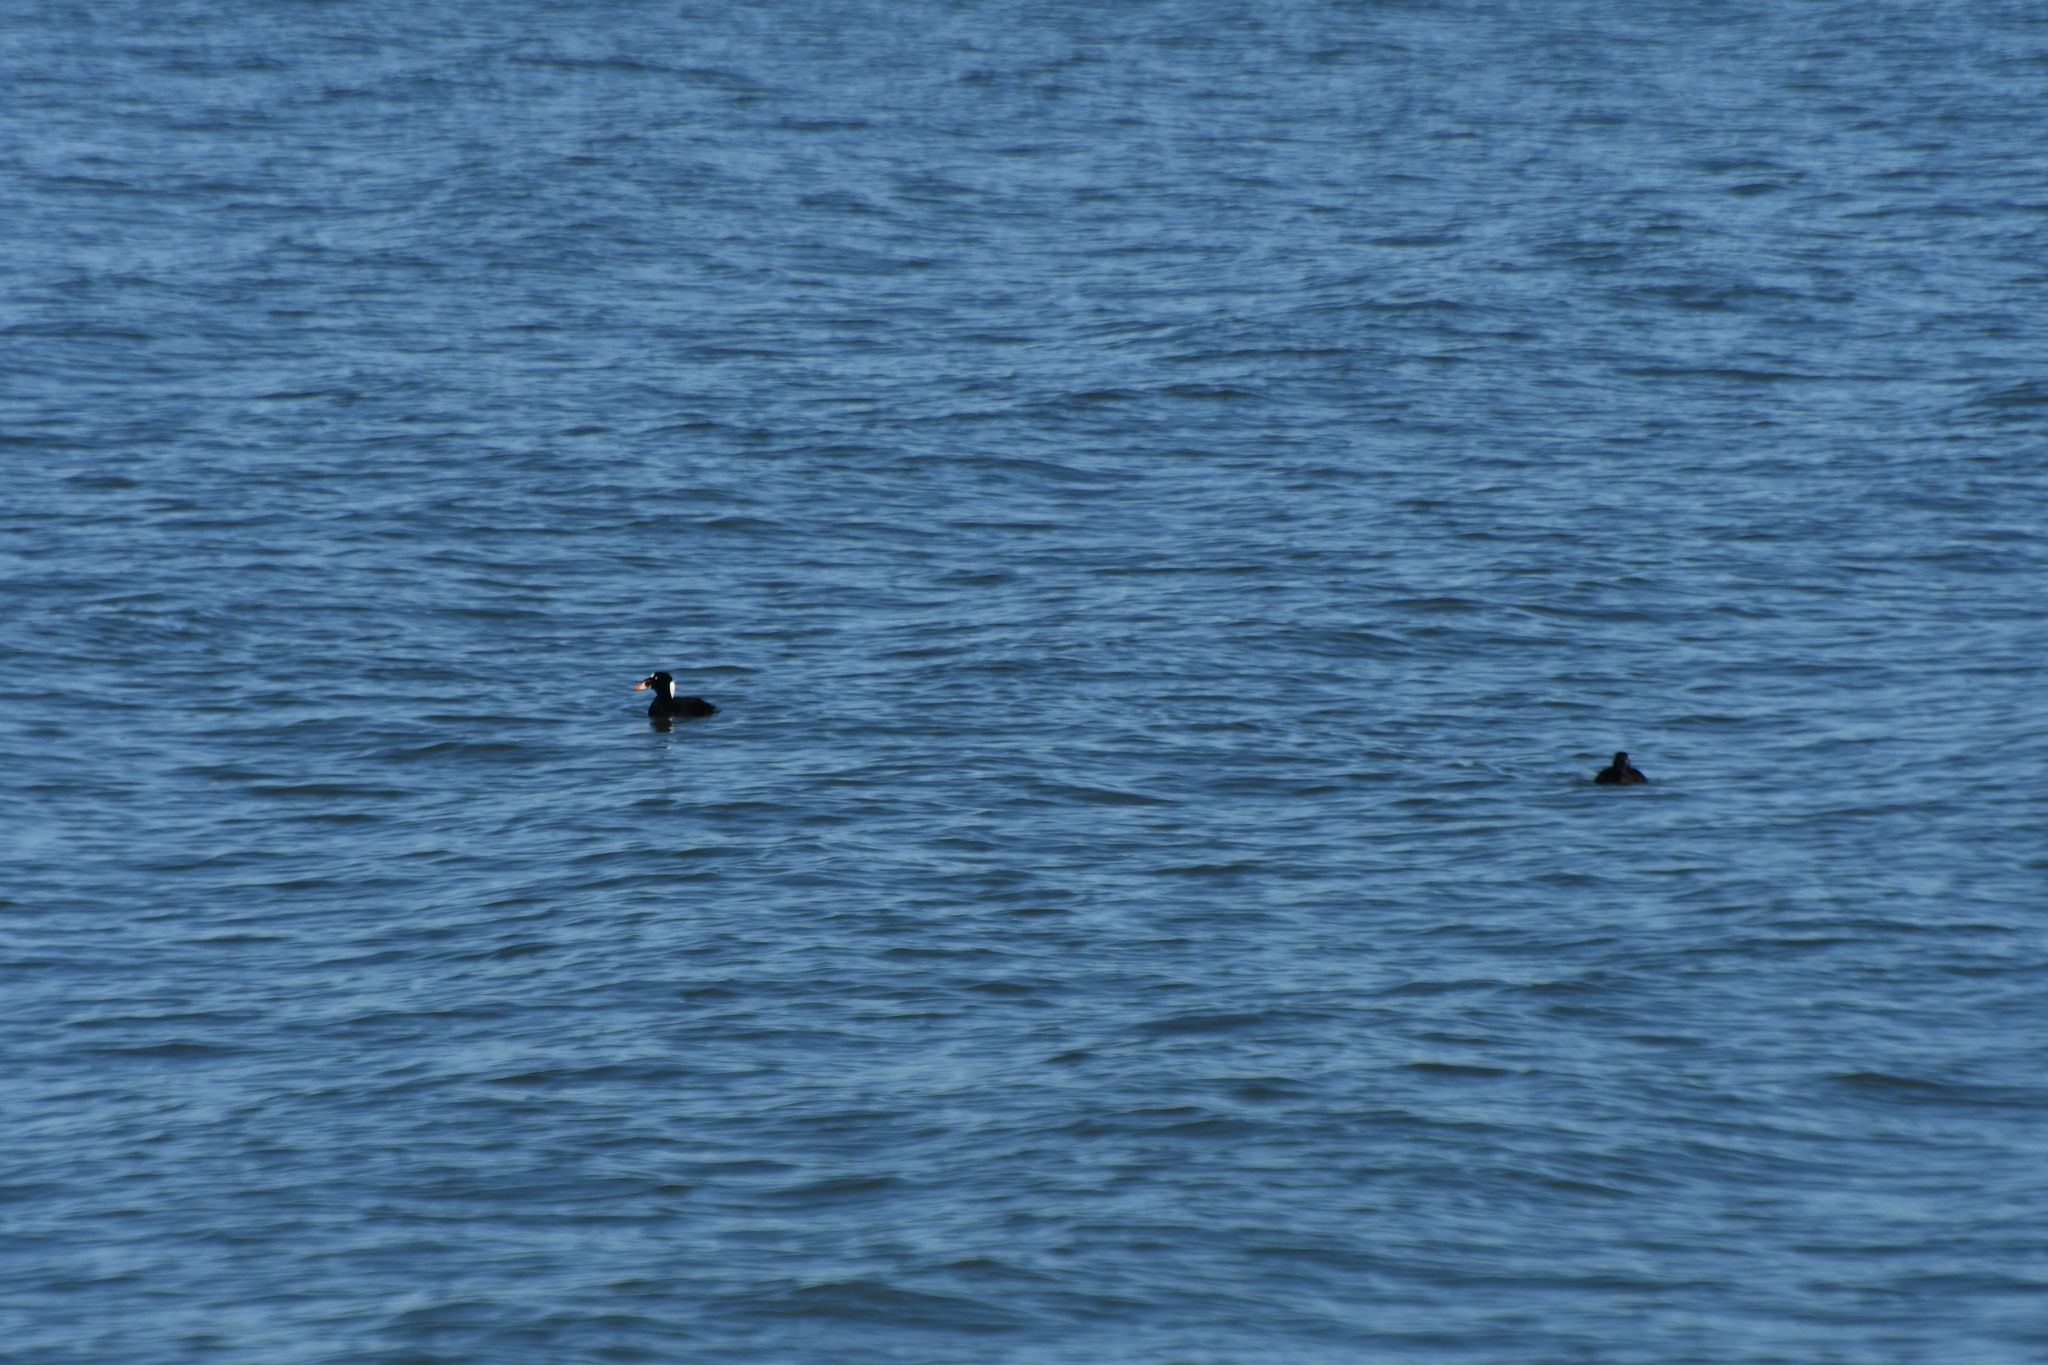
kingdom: Animalia
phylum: Chordata
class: Aves
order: Anseriformes
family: Anatidae
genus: Melanitta
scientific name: Melanitta perspicillata
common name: Surf scoter
